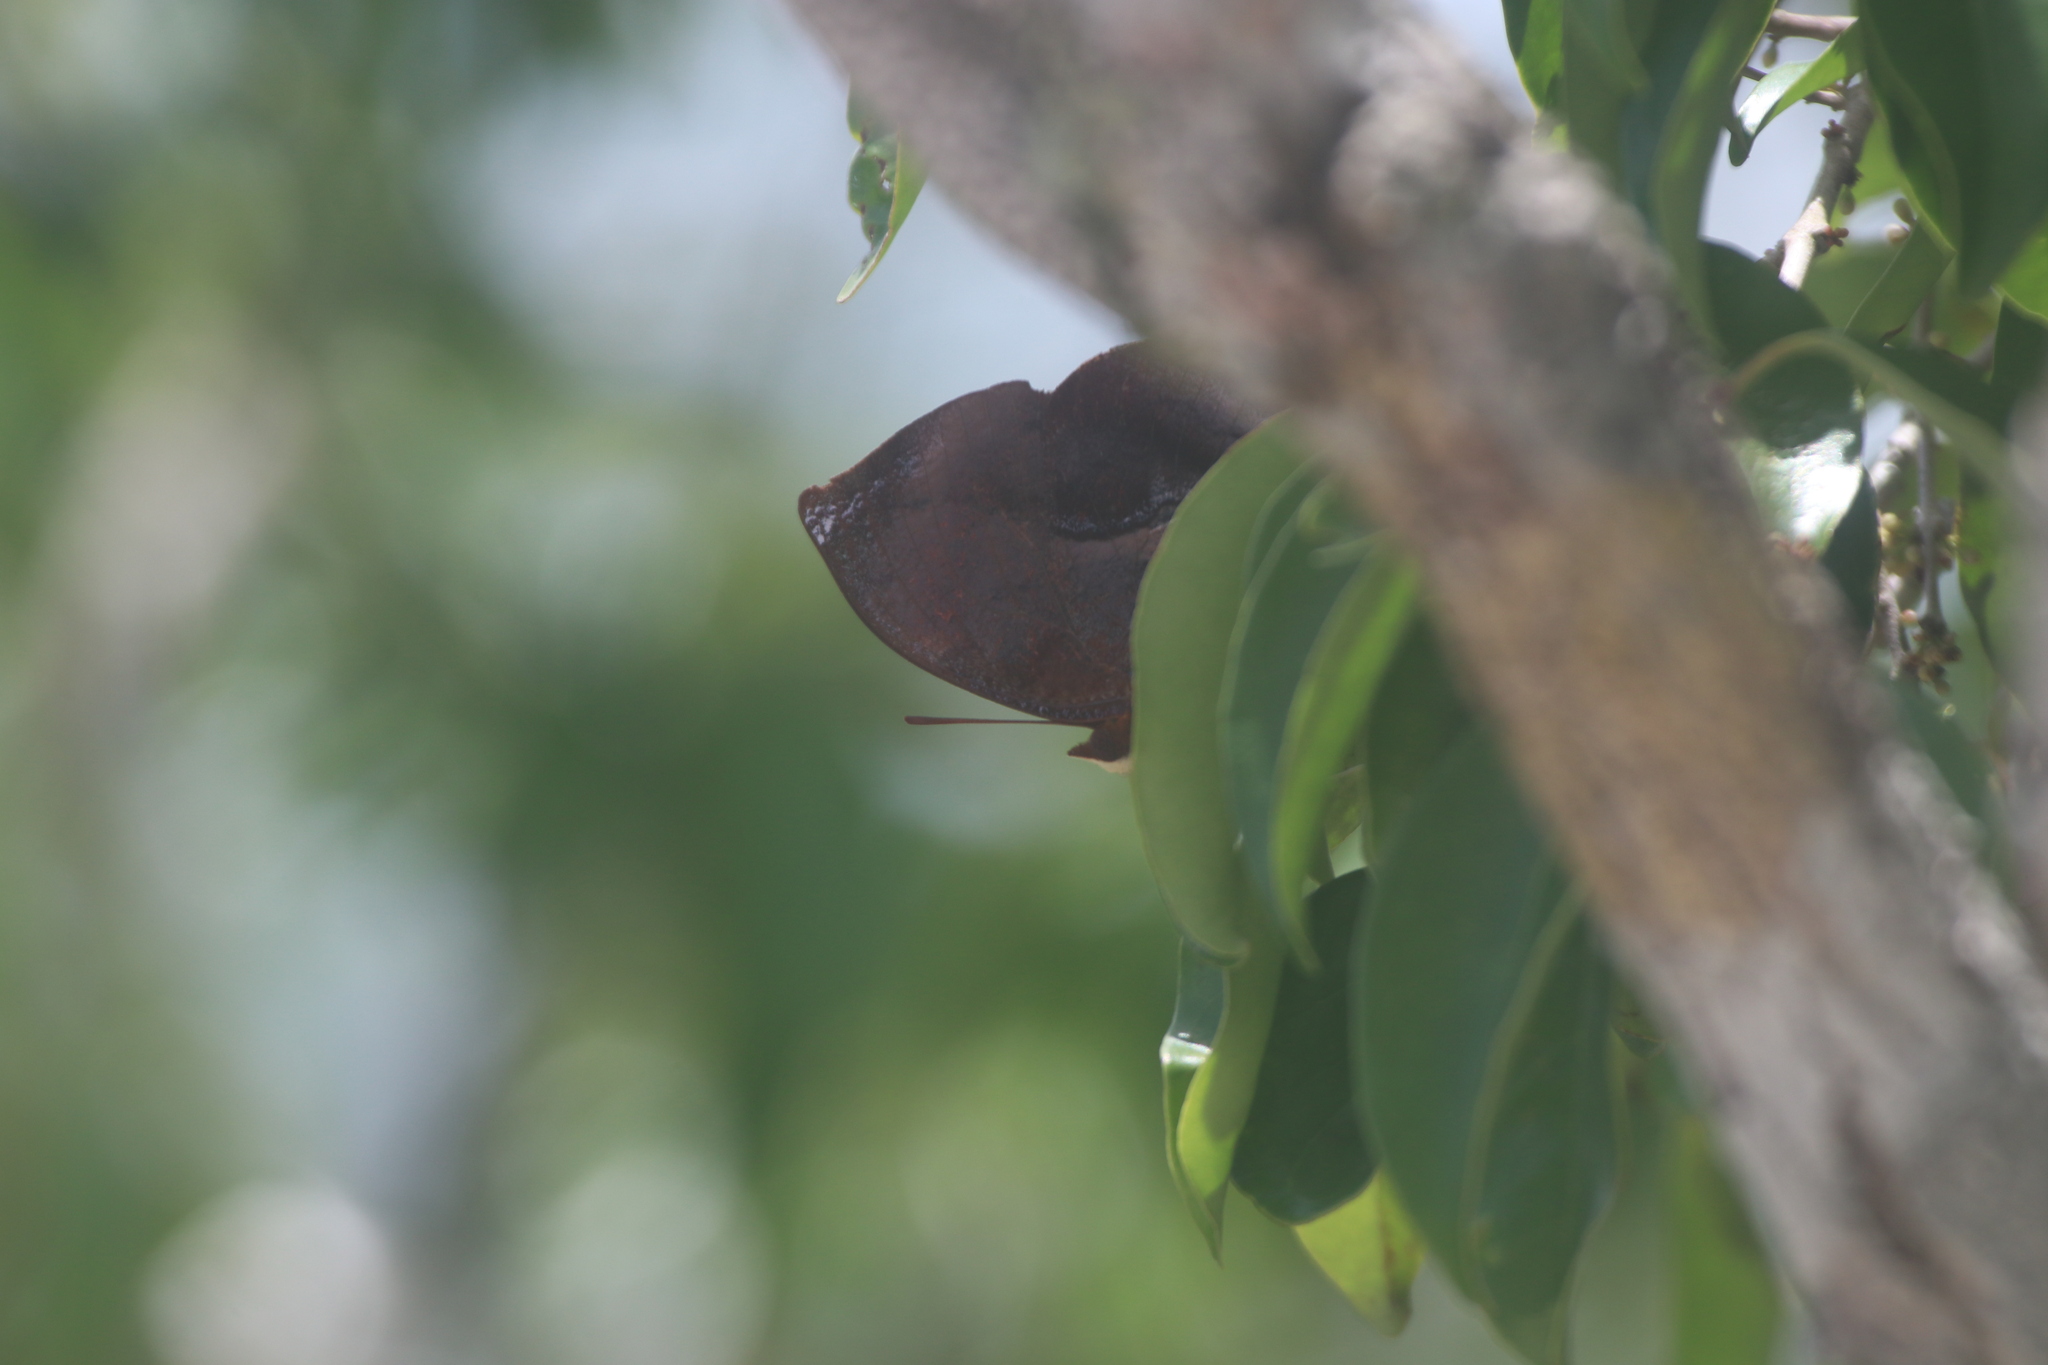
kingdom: Animalia
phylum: Arthropoda
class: Insecta
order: Lepidoptera
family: Nymphalidae
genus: Siderone
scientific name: Siderone galanthis
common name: Red-striped leafwing
